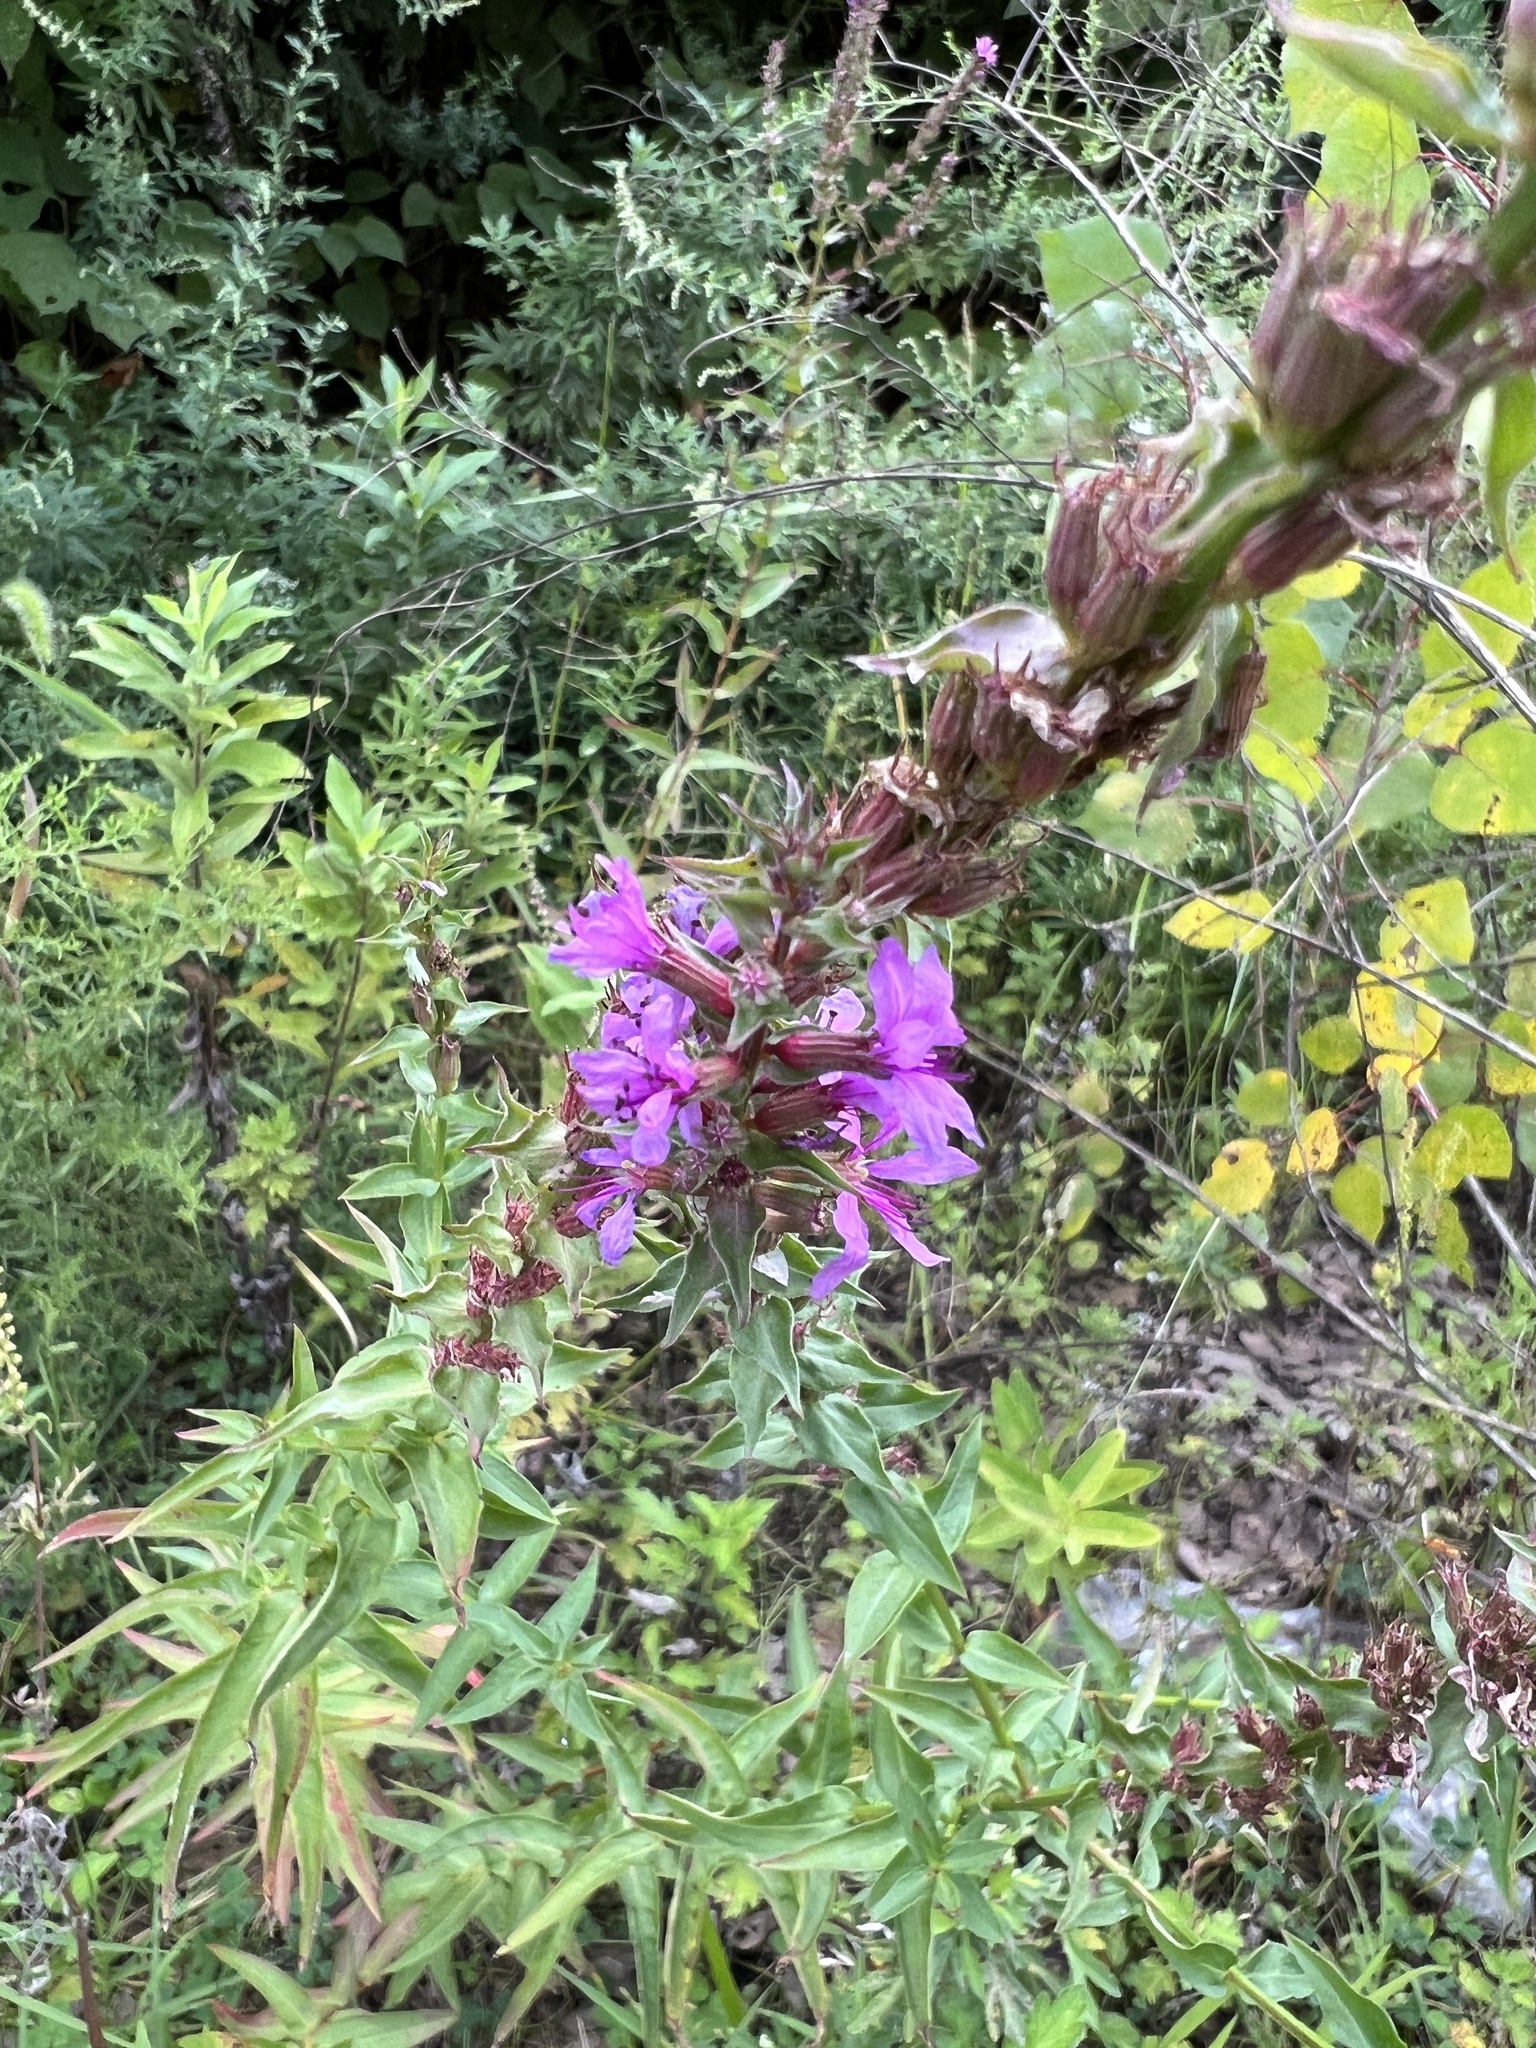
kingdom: Plantae
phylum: Tracheophyta
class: Magnoliopsida
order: Myrtales
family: Lythraceae
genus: Lythrum
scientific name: Lythrum salicaria
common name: Purple loosestrife
